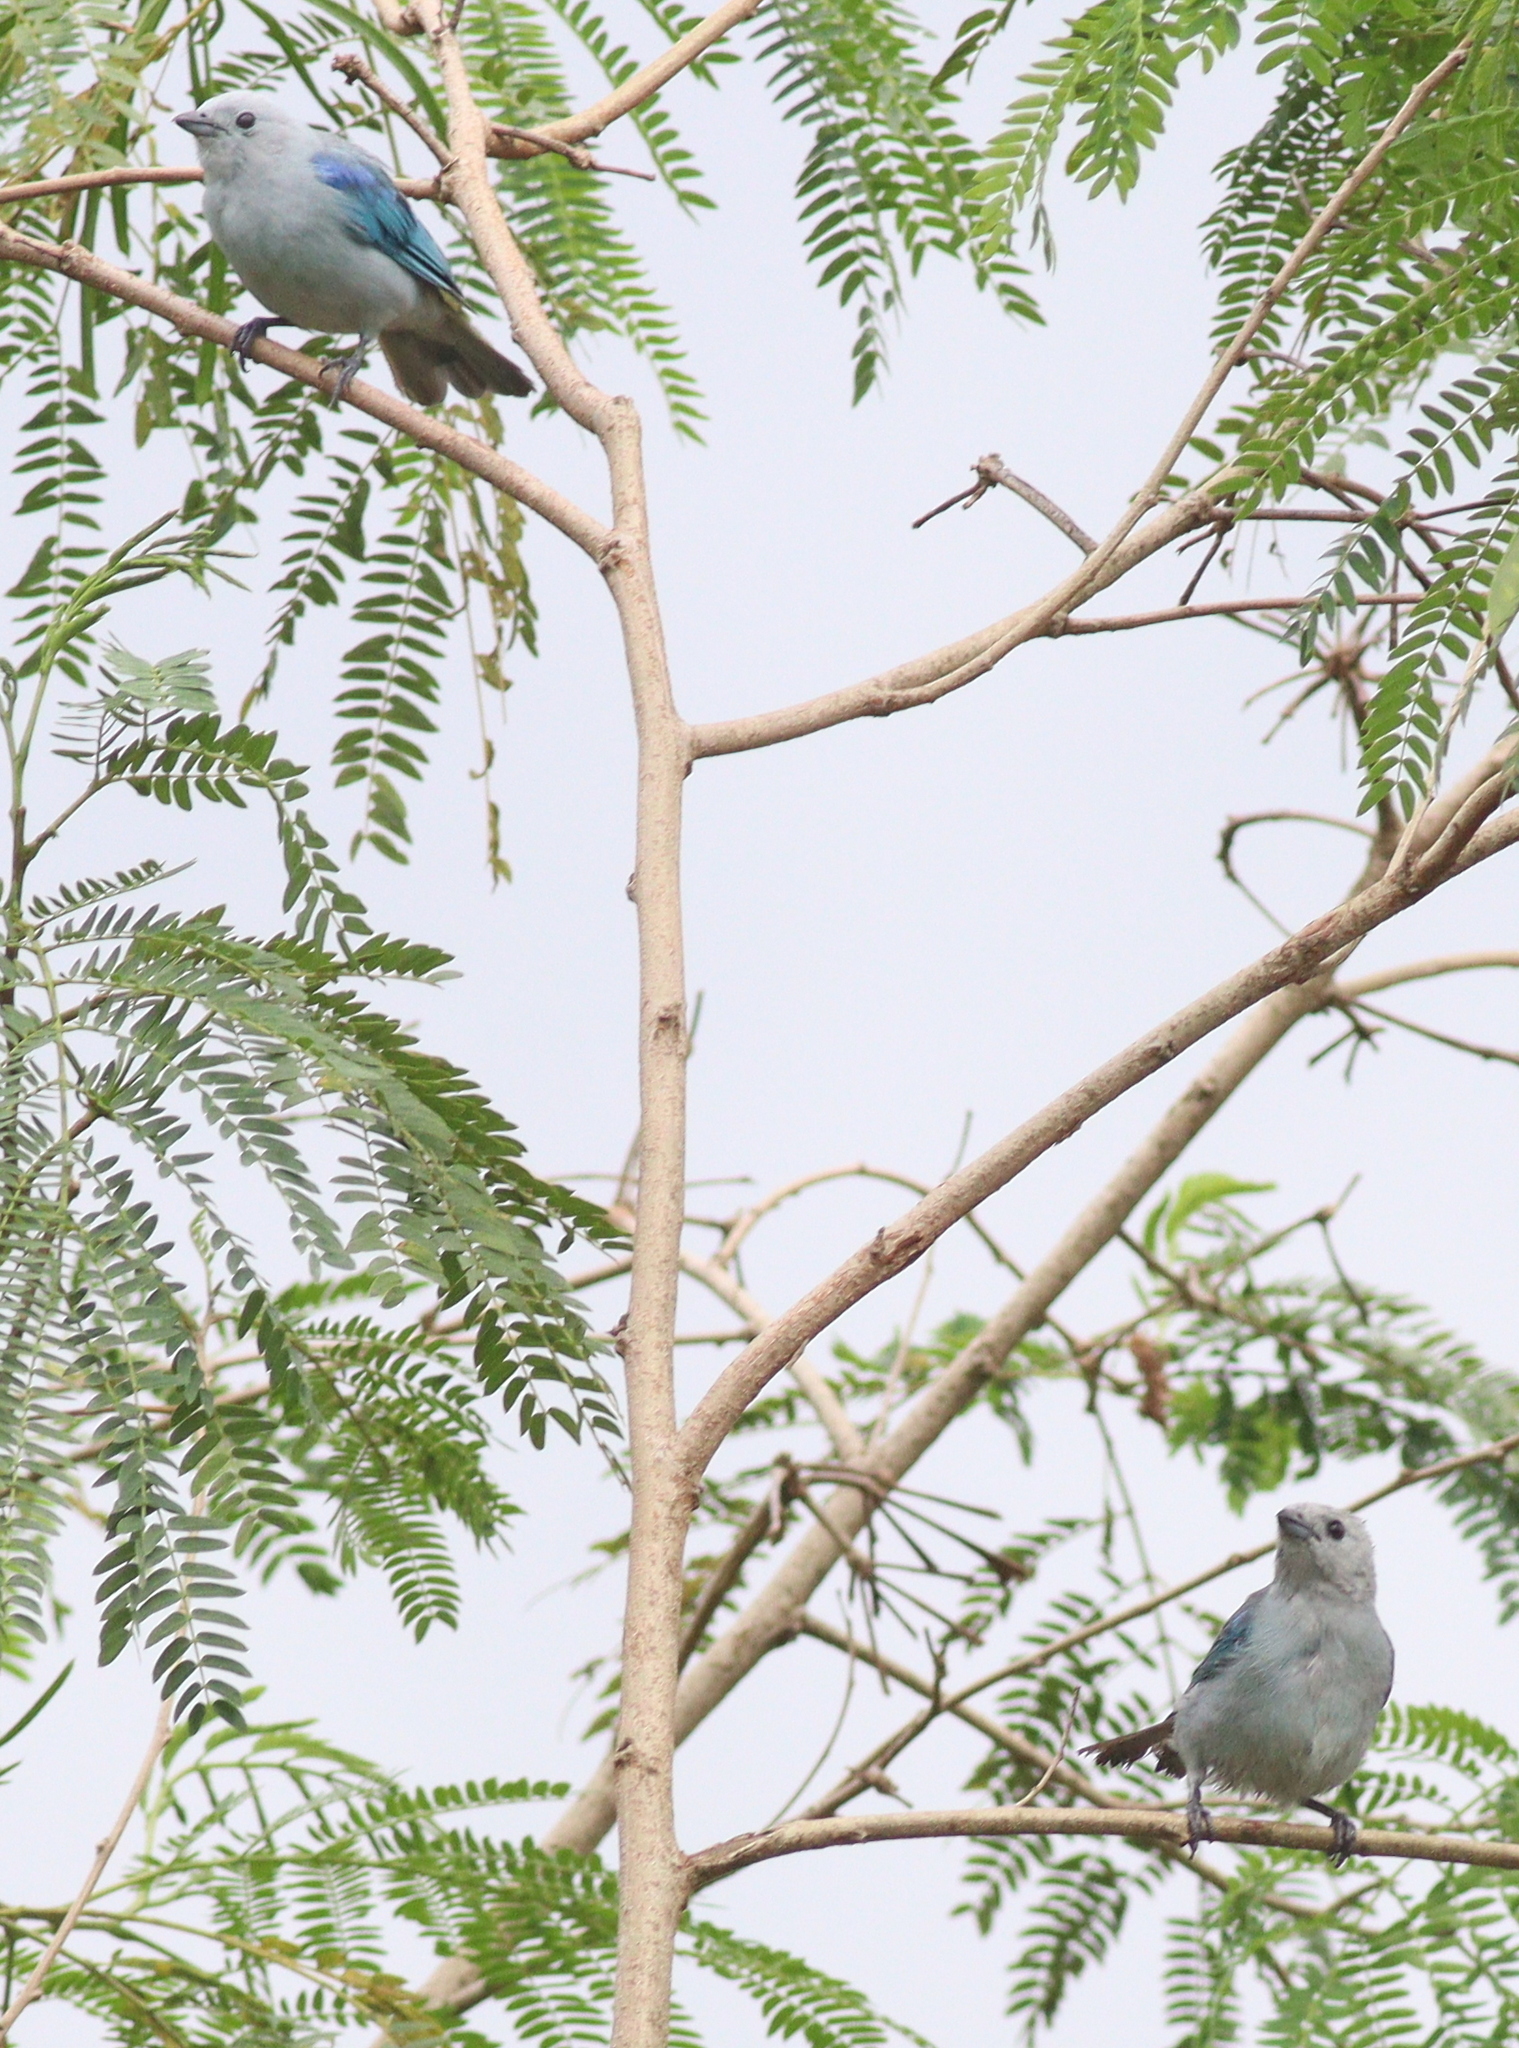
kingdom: Animalia
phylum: Chordata
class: Aves
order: Passeriformes
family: Thraupidae
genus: Thraupis
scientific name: Thraupis episcopus
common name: Blue-grey tanager
